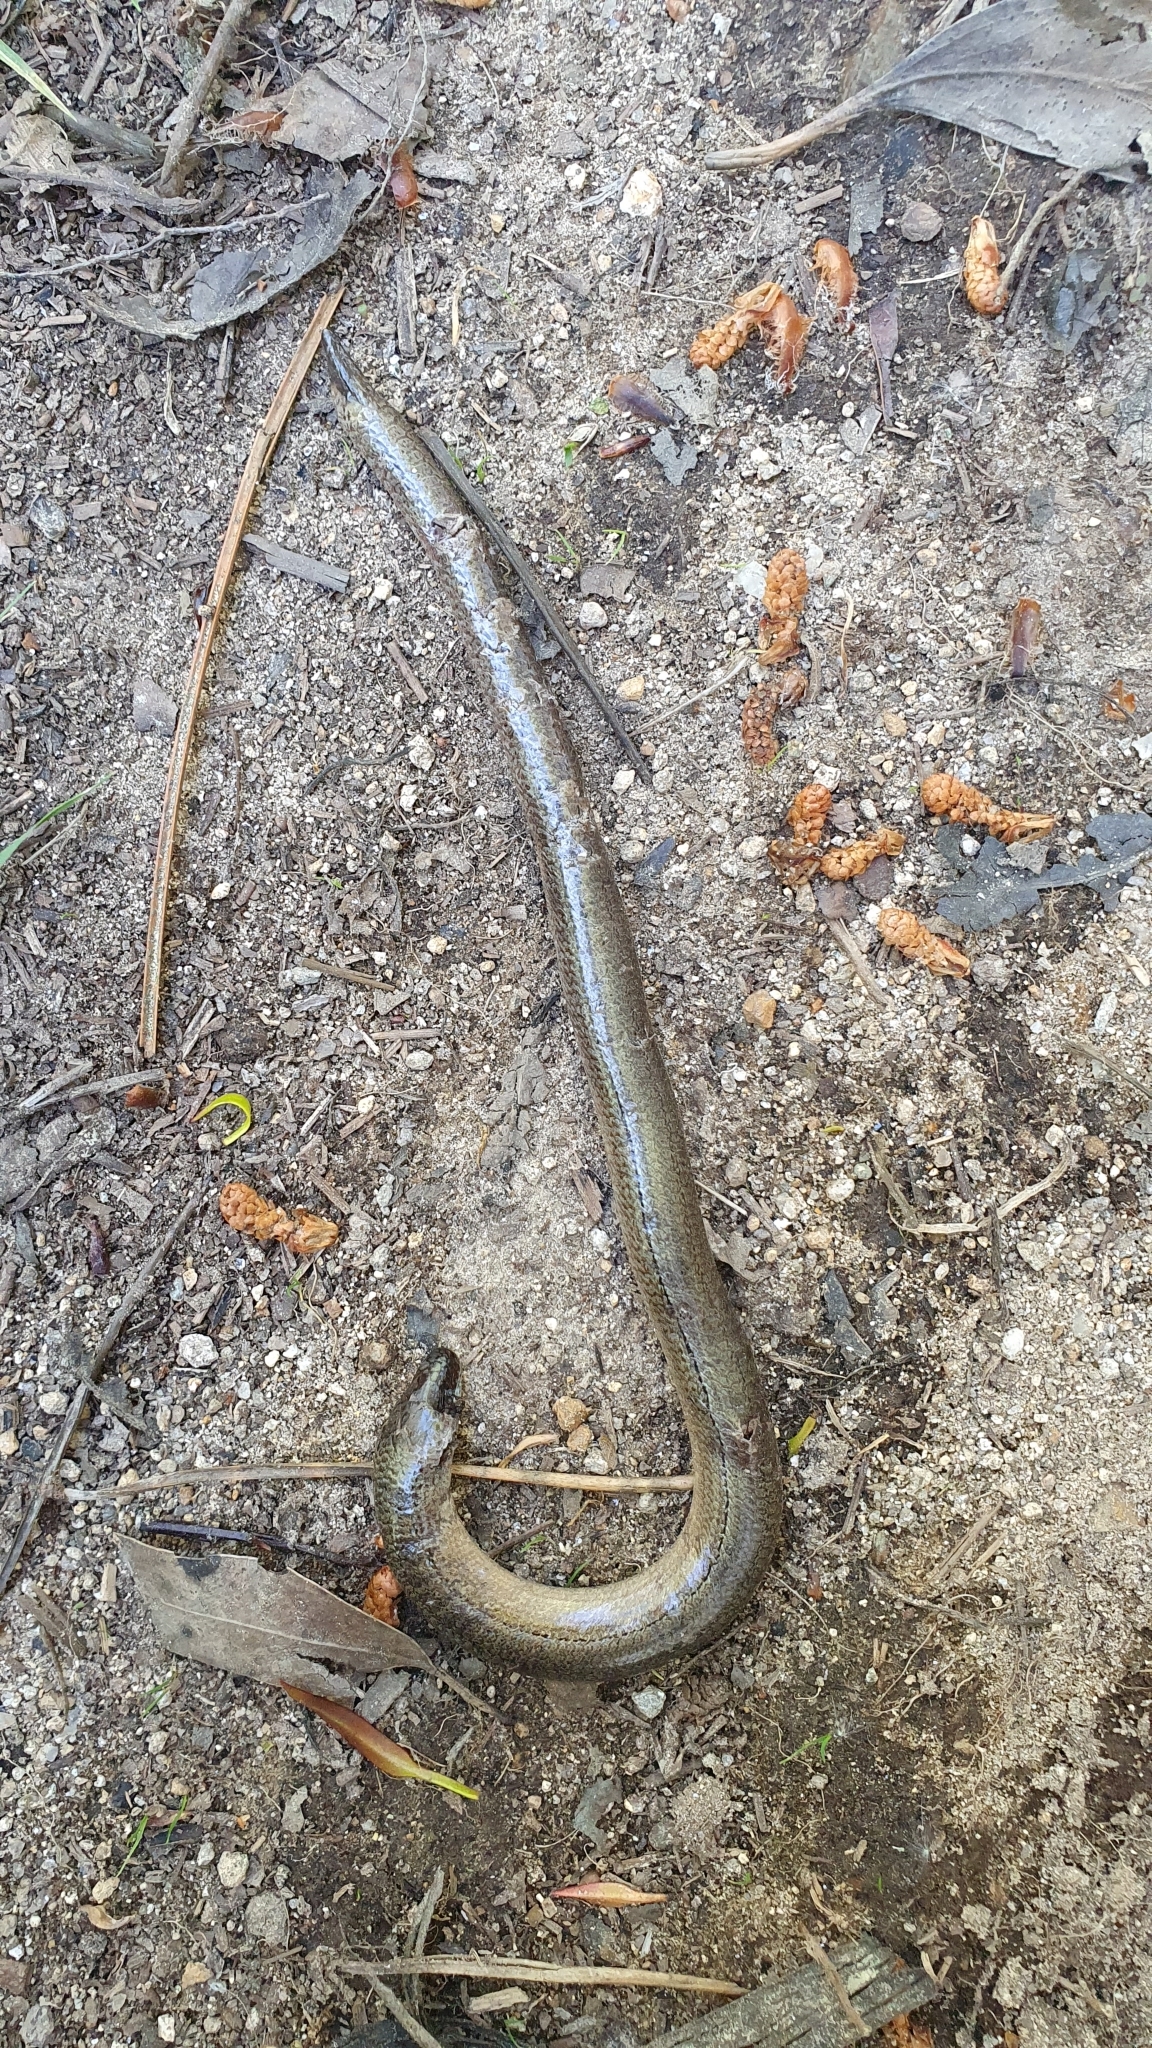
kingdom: Animalia
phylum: Chordata
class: Squamata
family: Anguidae
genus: Anguis
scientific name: Anguis fragilis
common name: Slow worm
